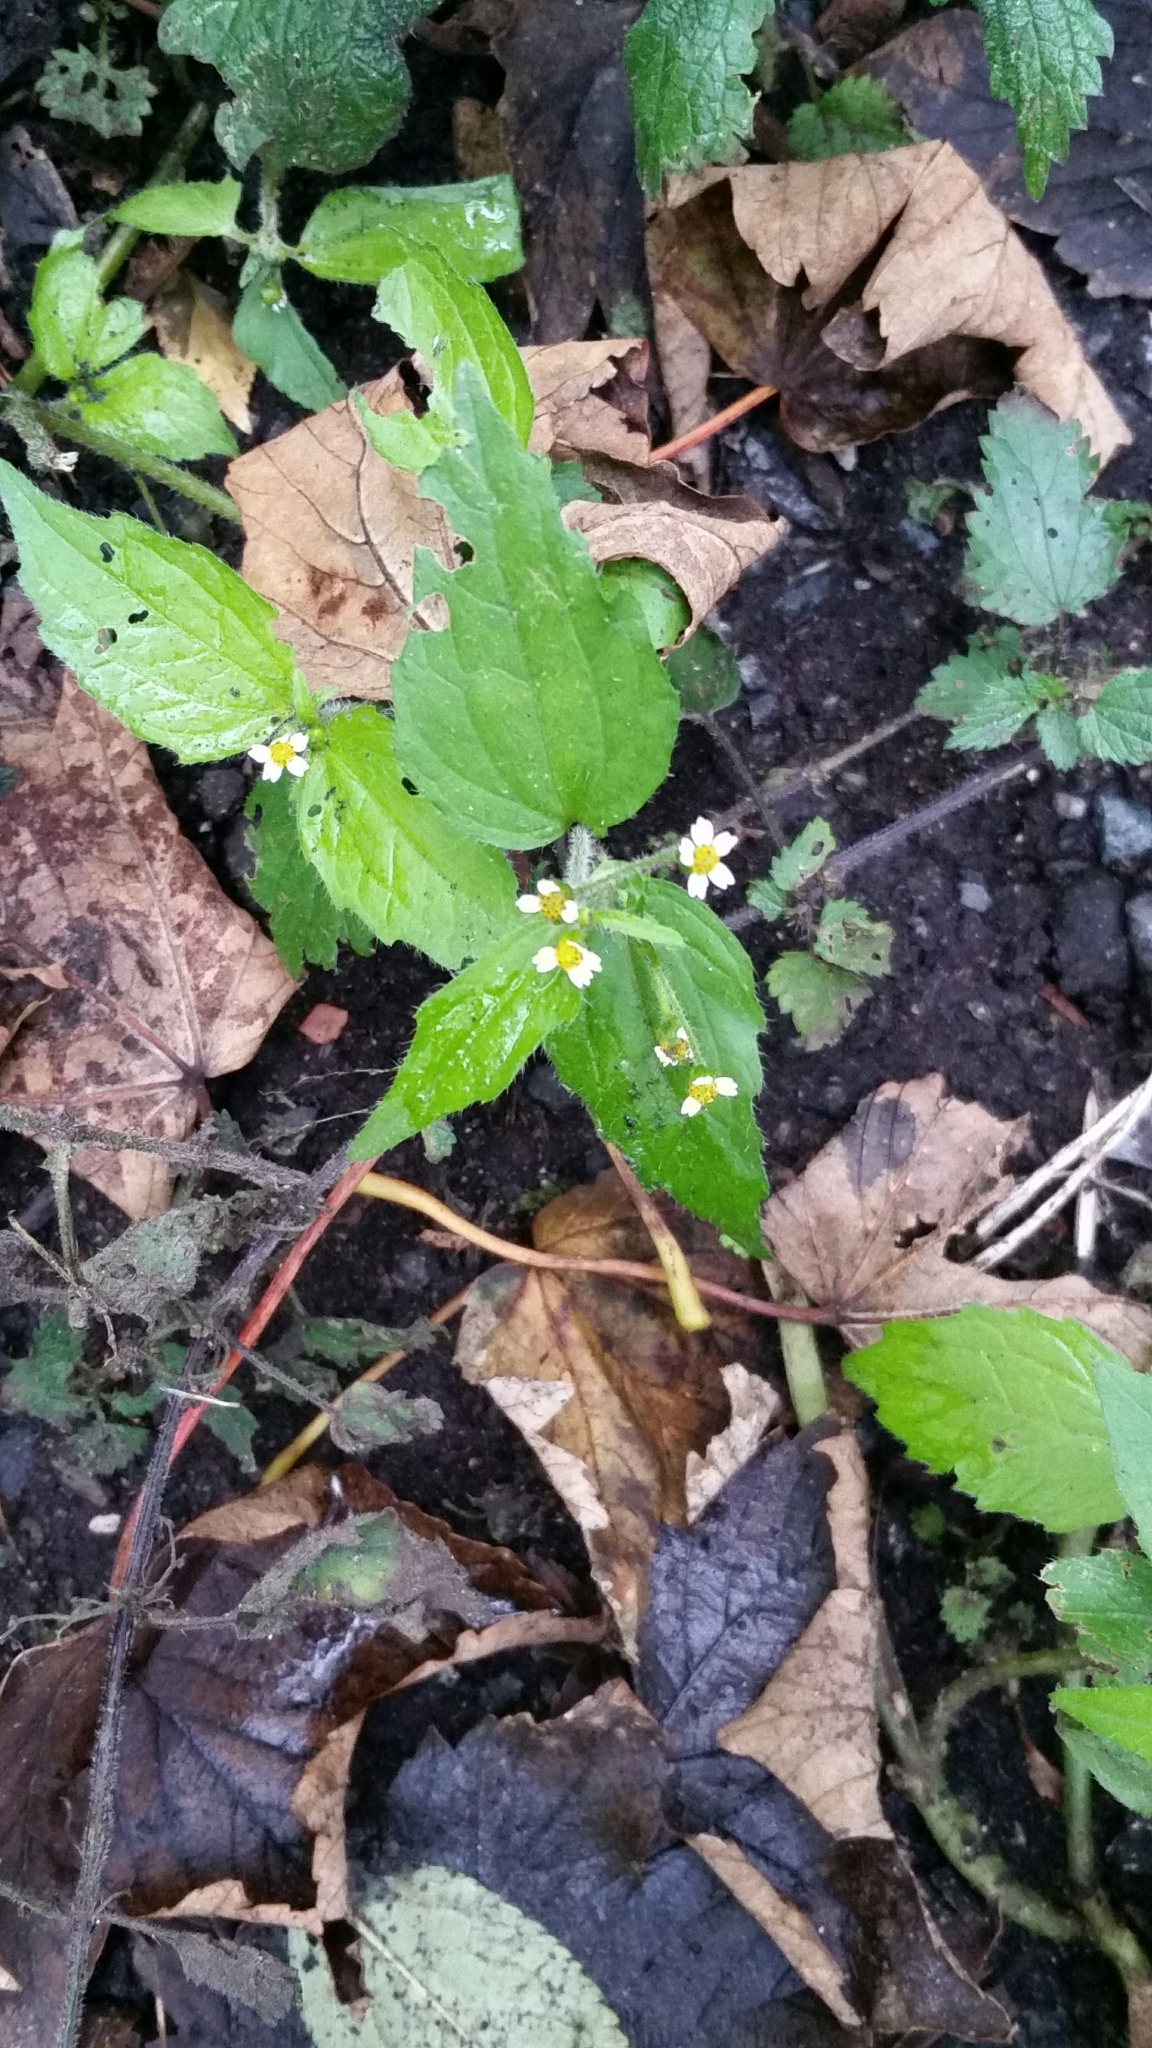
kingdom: Plantae
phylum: Tracheophyta
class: Magnoliopsida
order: Asterales
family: Asteraceae
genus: Galinsoga
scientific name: Galinsoga quadriradiata
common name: Shaggy soldier
